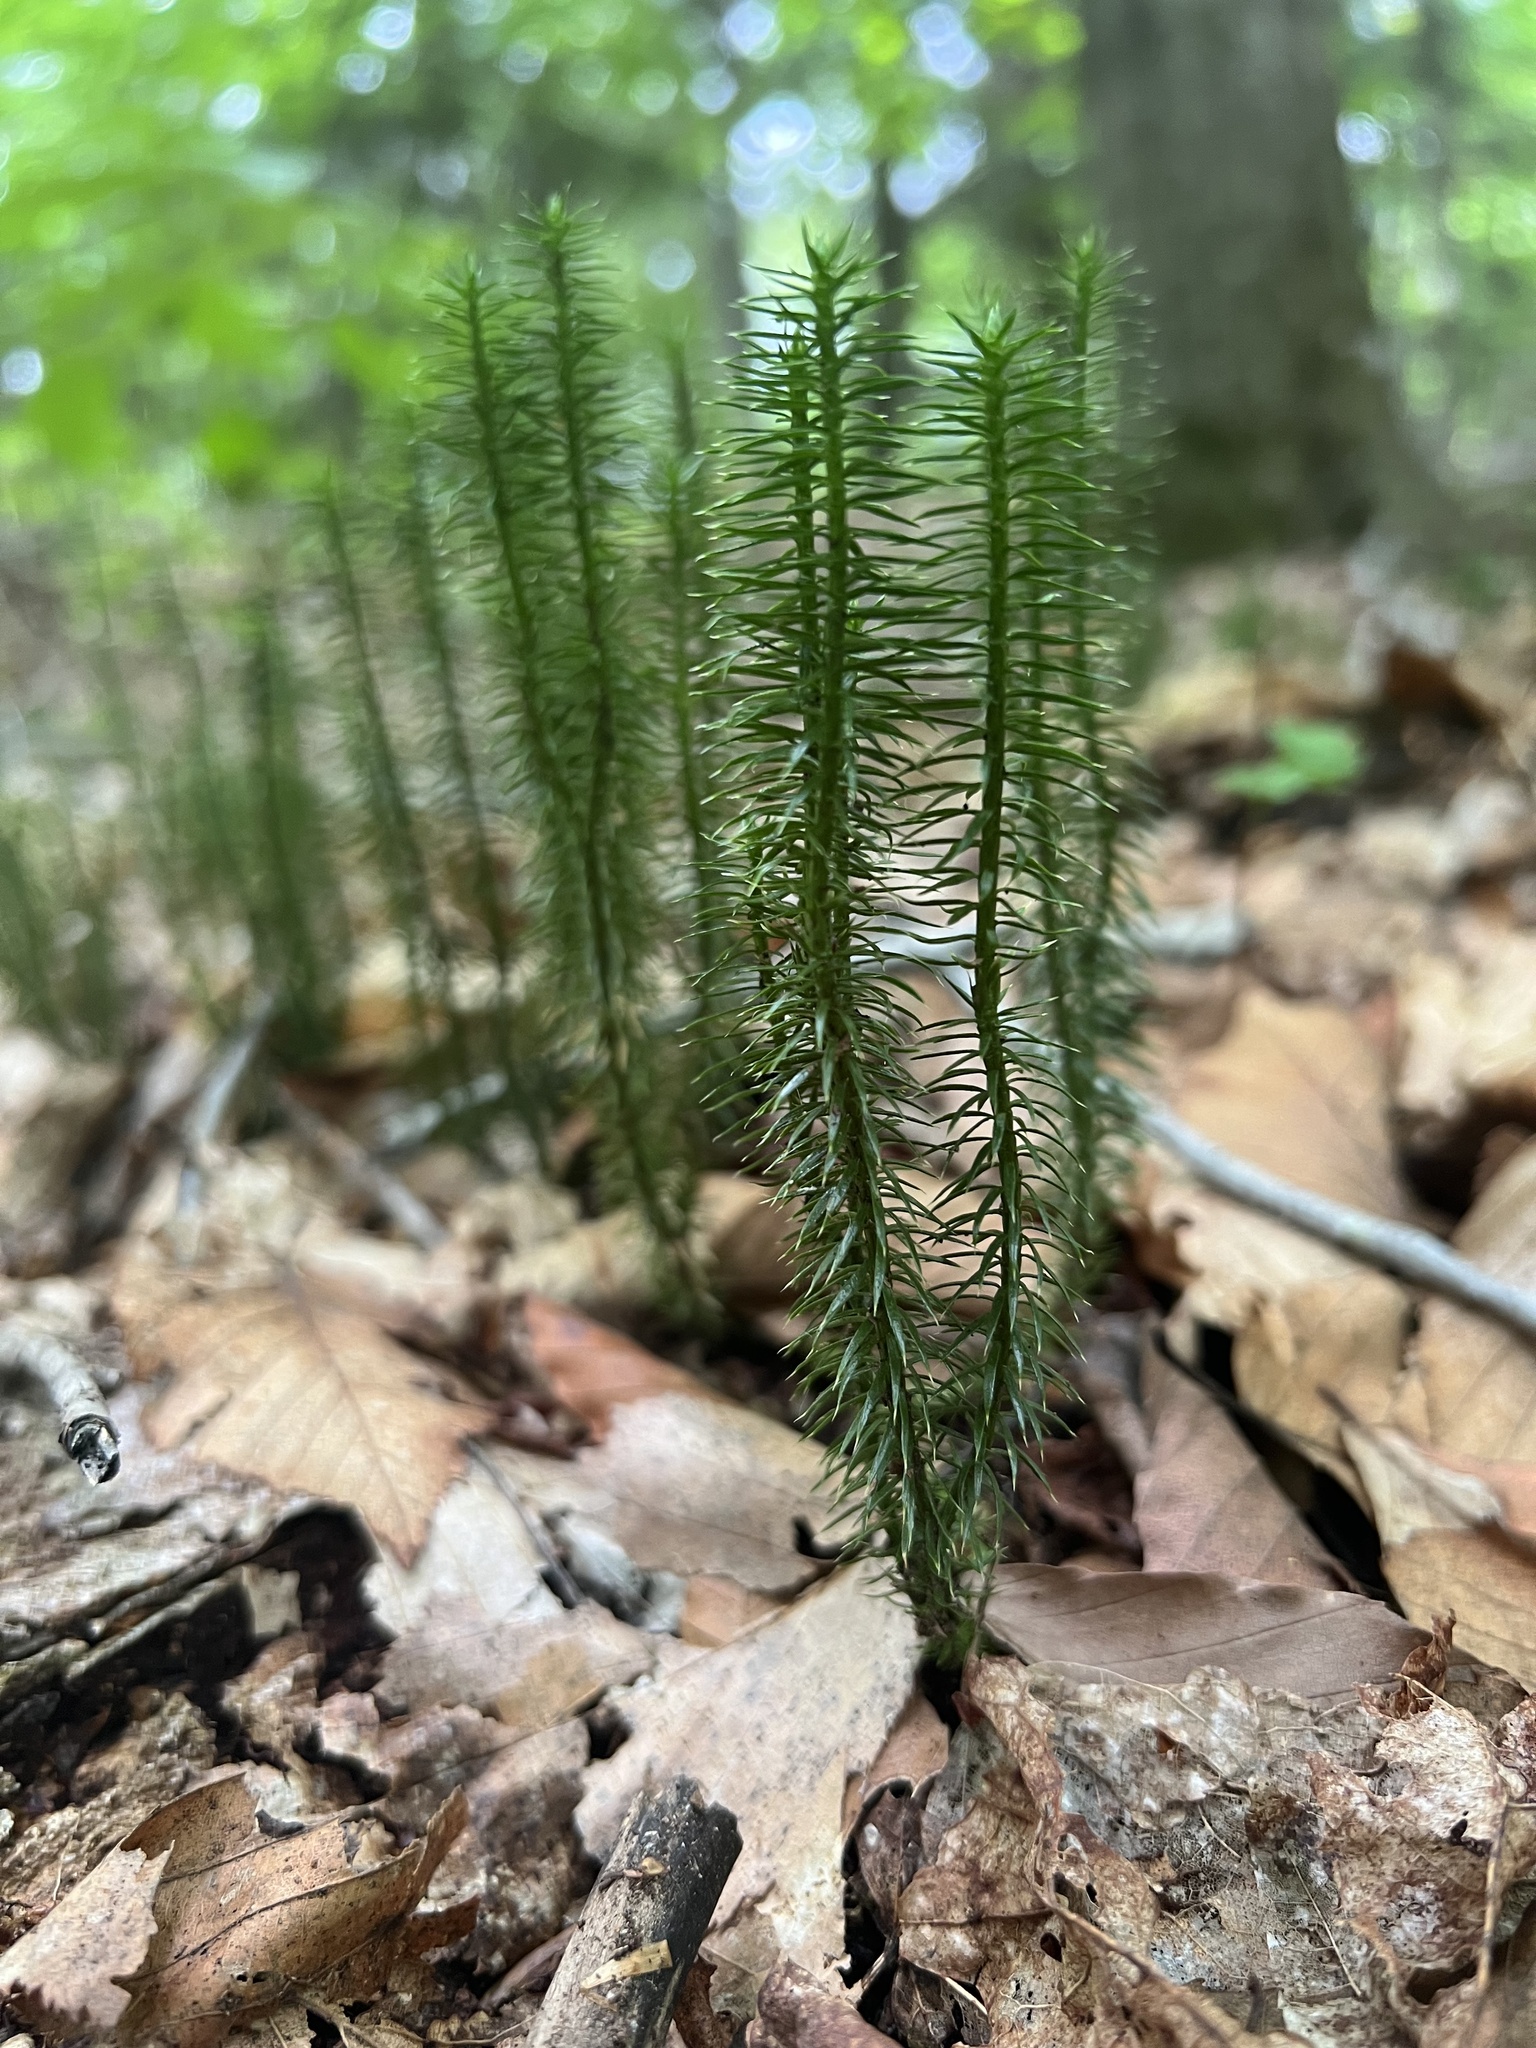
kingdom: Plantae
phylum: Tracheophyta
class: Lycopodiopsida
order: Lycopodiales
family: Lycopodiaceae
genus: Huperzia
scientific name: Huperzia lucidula
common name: Shining clubmoss
